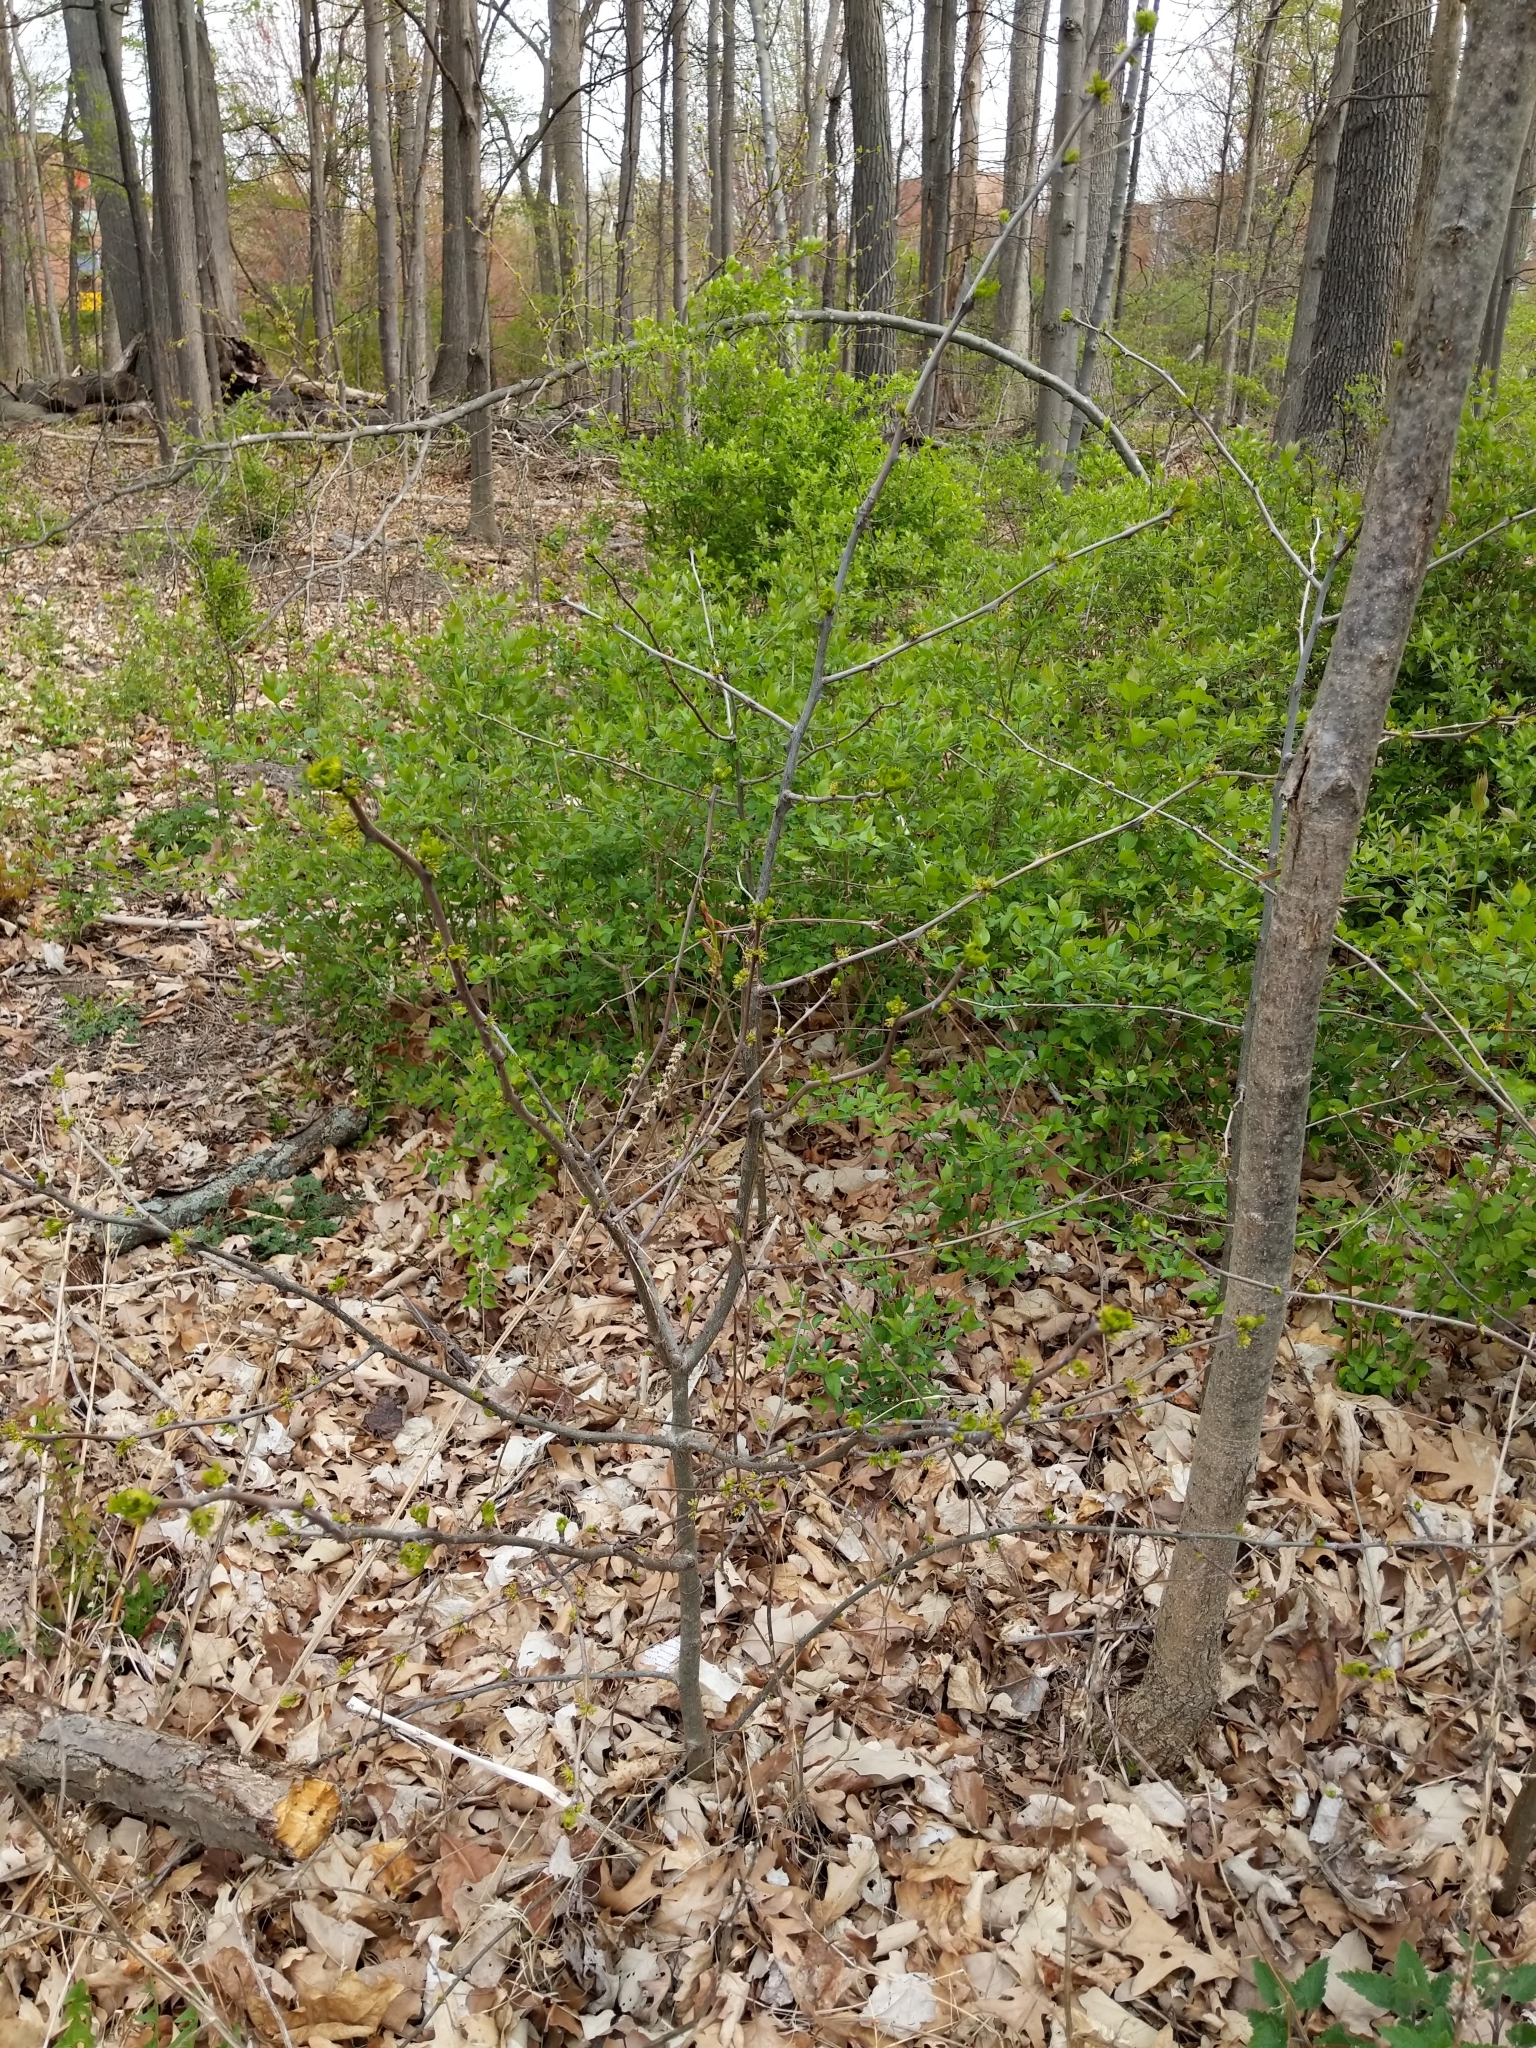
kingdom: Plantae
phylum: Tracheophyta
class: Magnoliopsida
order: Sapindales
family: Rutaceae
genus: Zanthoxylum
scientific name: Zanthoxylum americanum
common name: Northern prickly-ash
